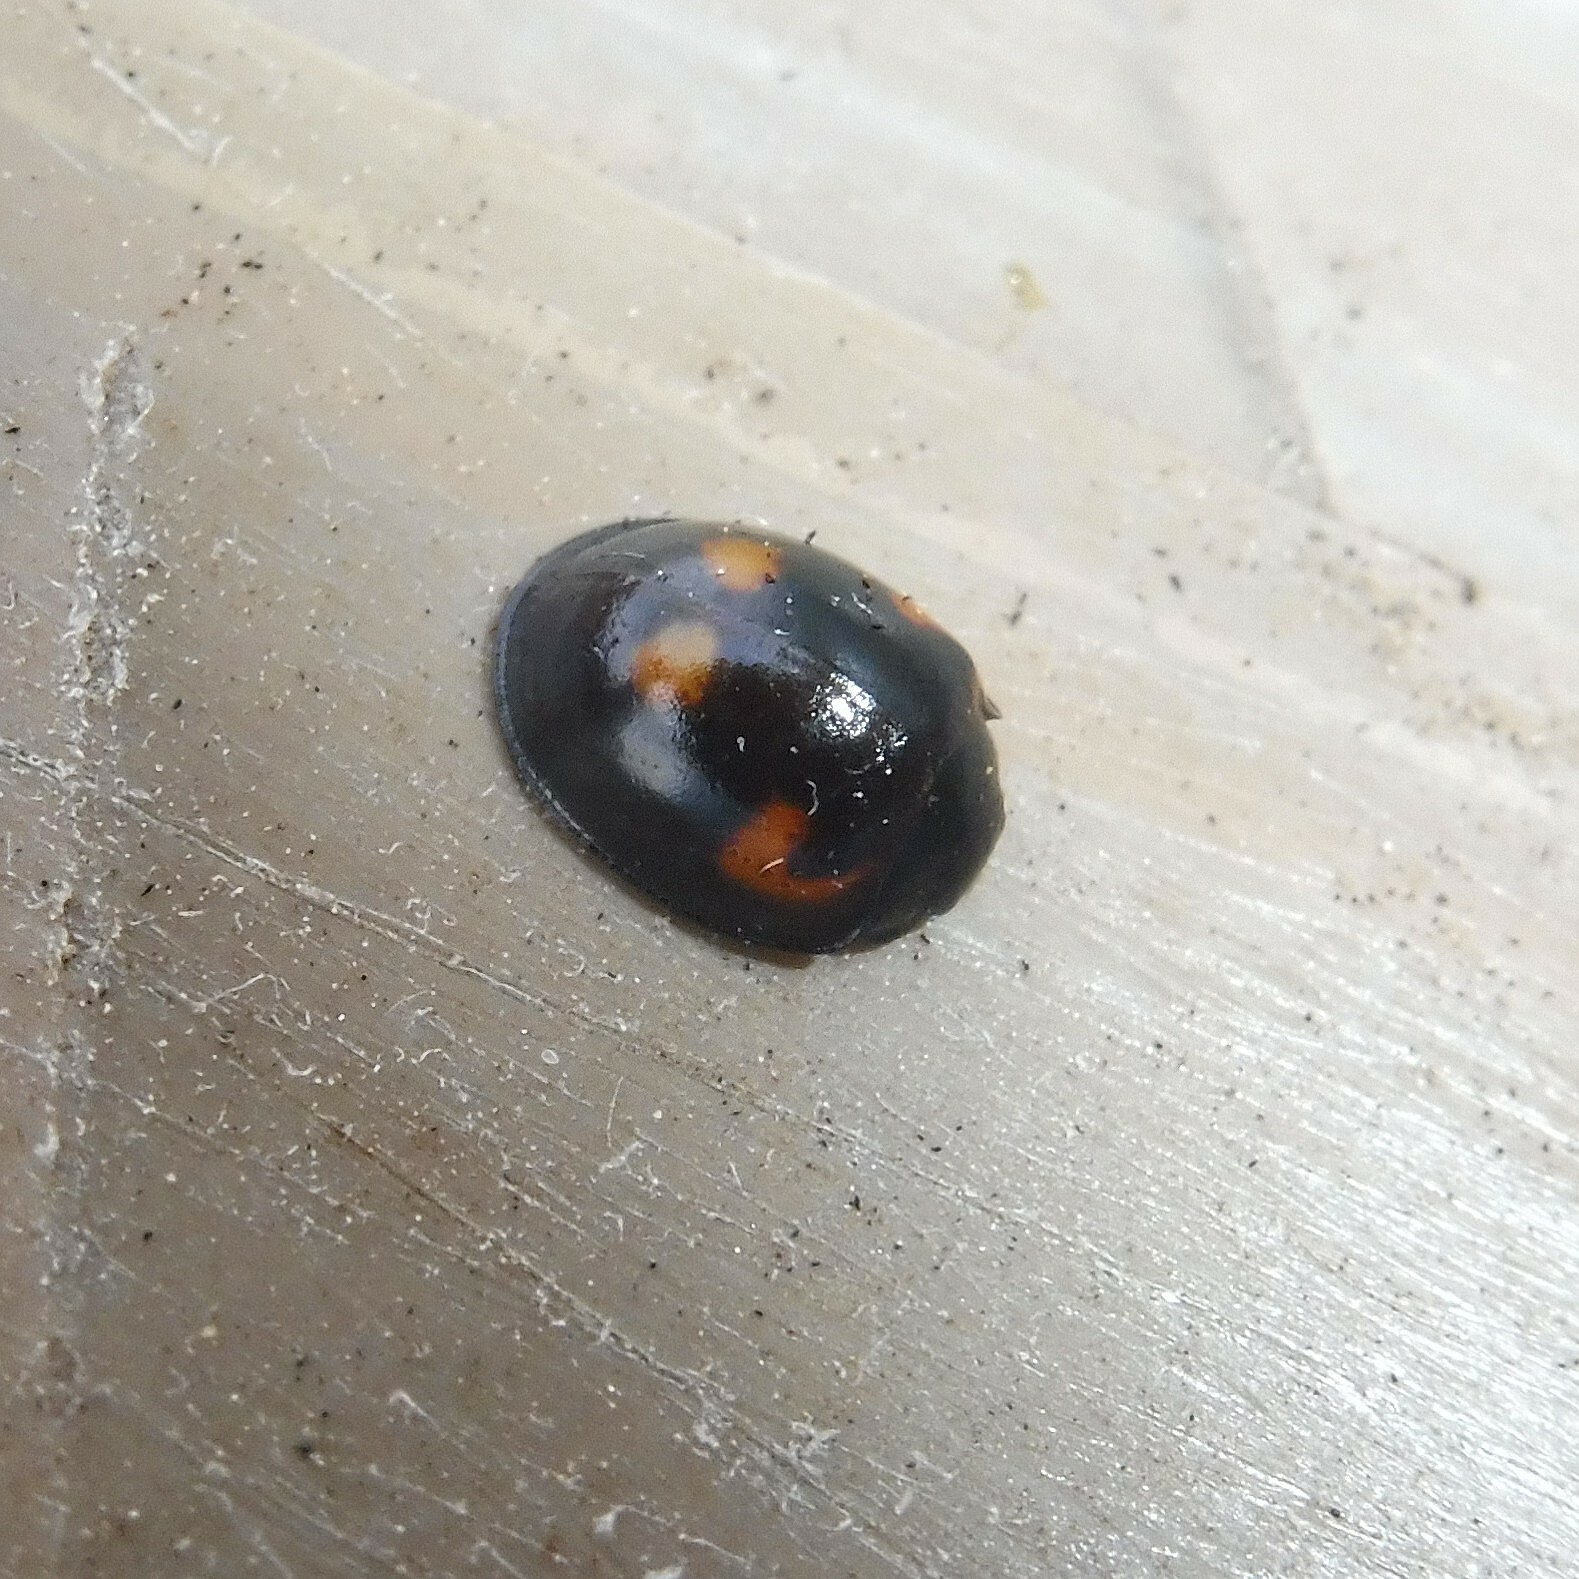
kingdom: Animalia
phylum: Arthropoda
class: Insecta
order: Coleoptera
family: Coccinellidae
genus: Brumus
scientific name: Brumus quadripustulatus
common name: Ladybird beetle
